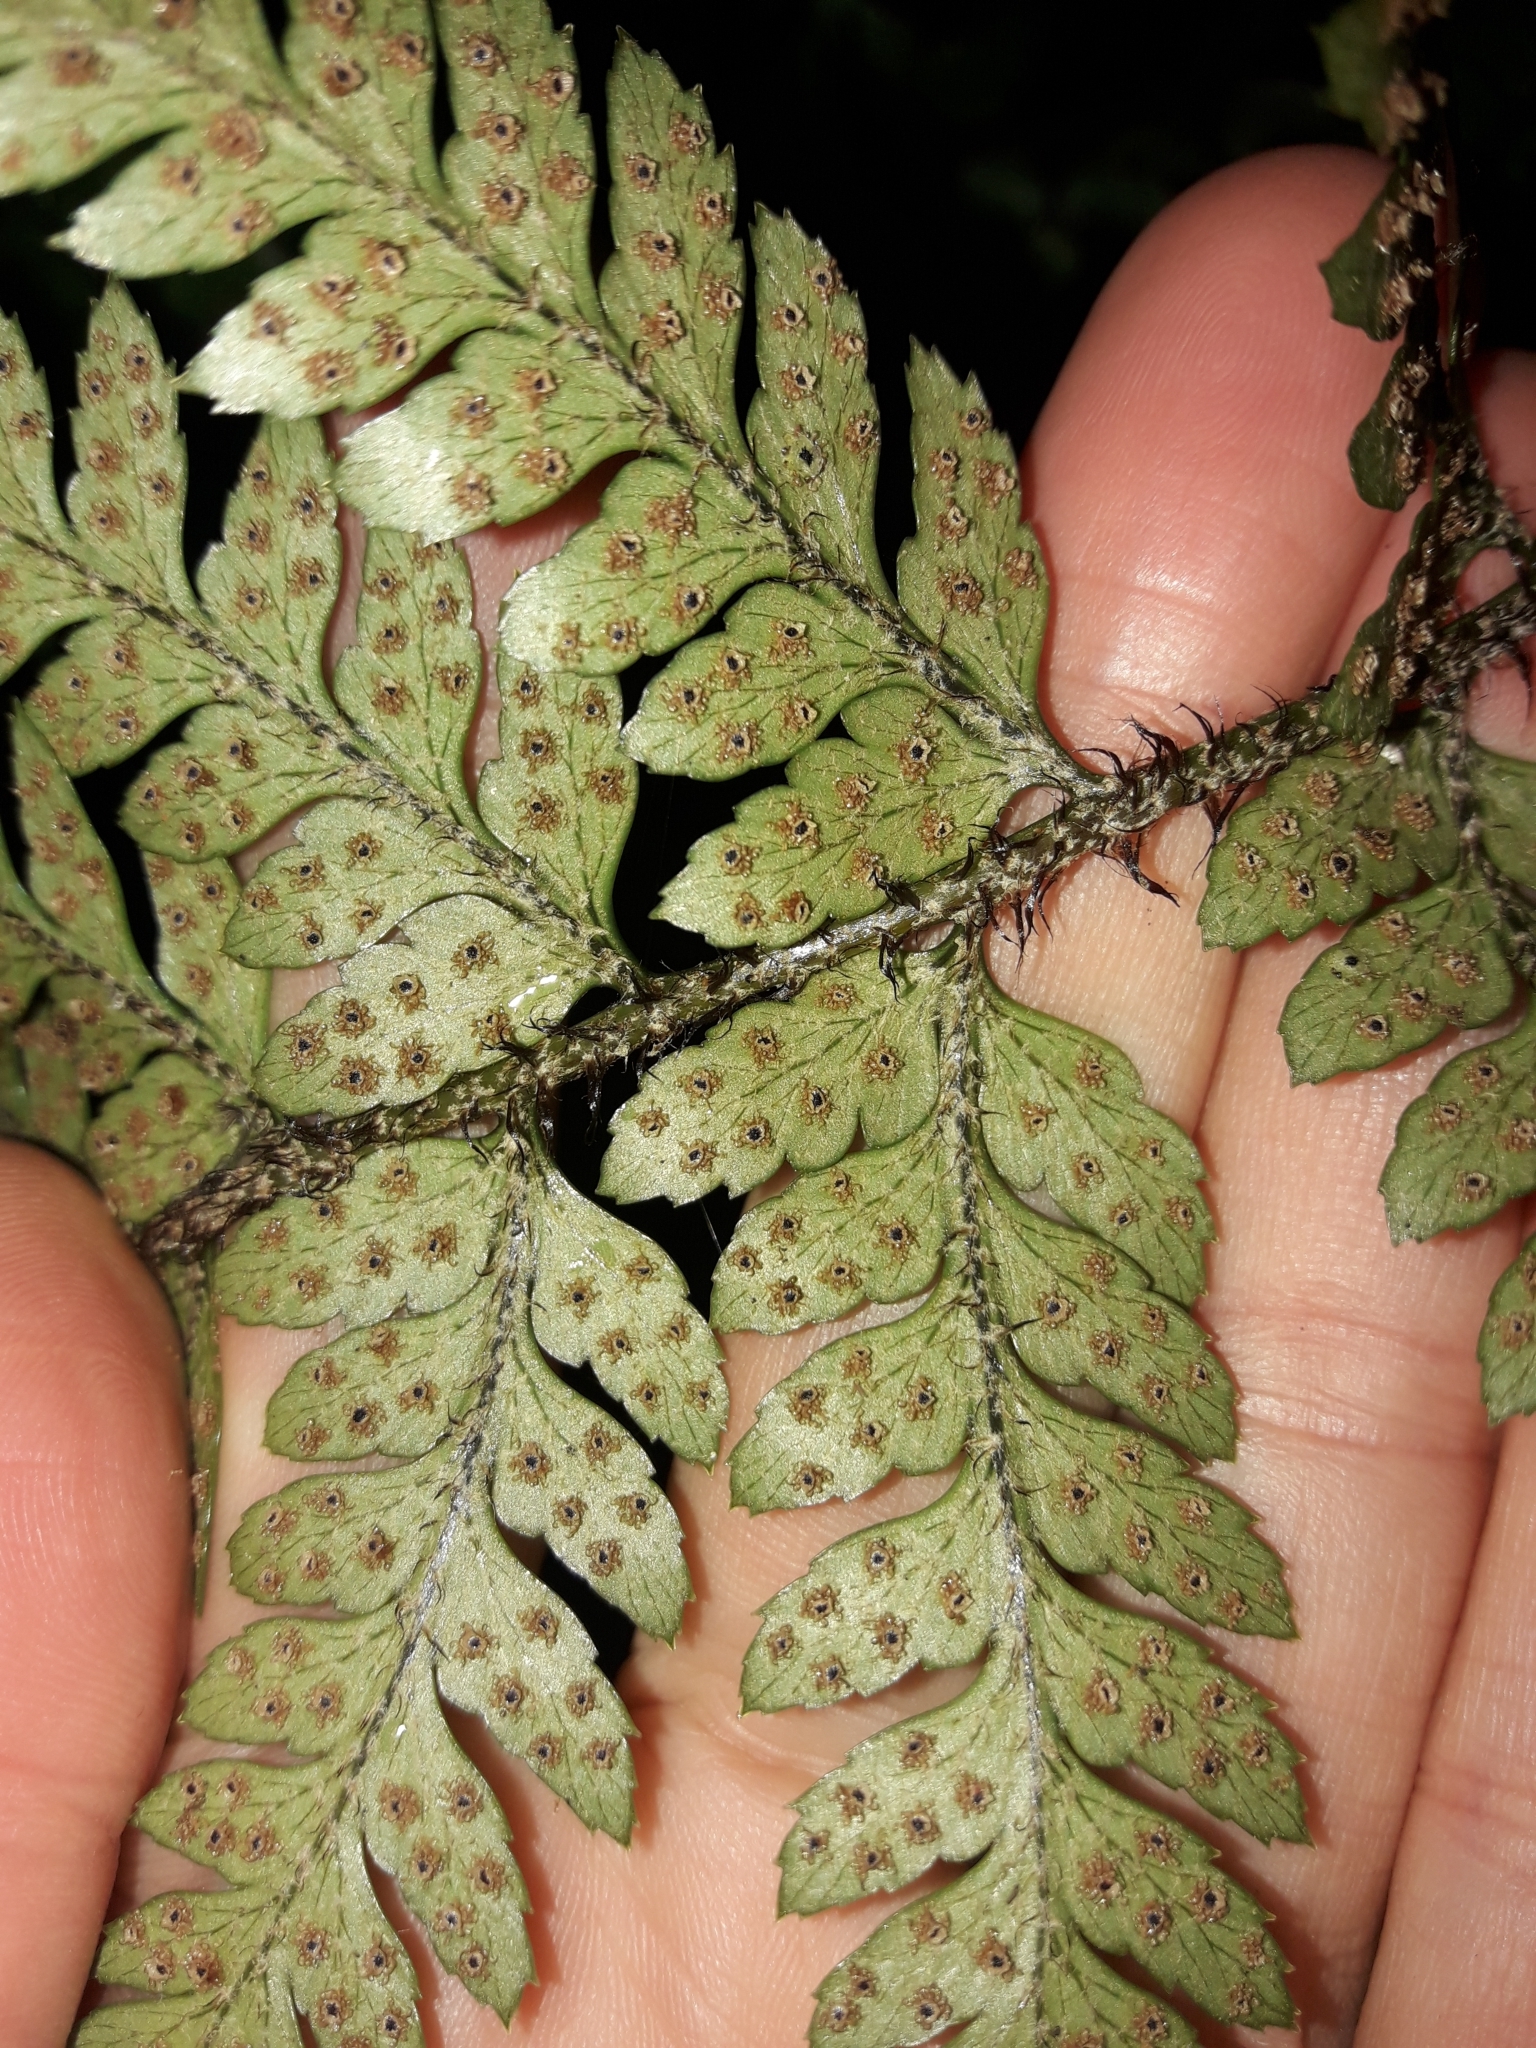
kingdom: Plantae
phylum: Tracheophyta
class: Polypodiopsida
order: Polypodiales
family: Dryopteridaceae
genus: Polystichum
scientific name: Polystichum neozelandicum
